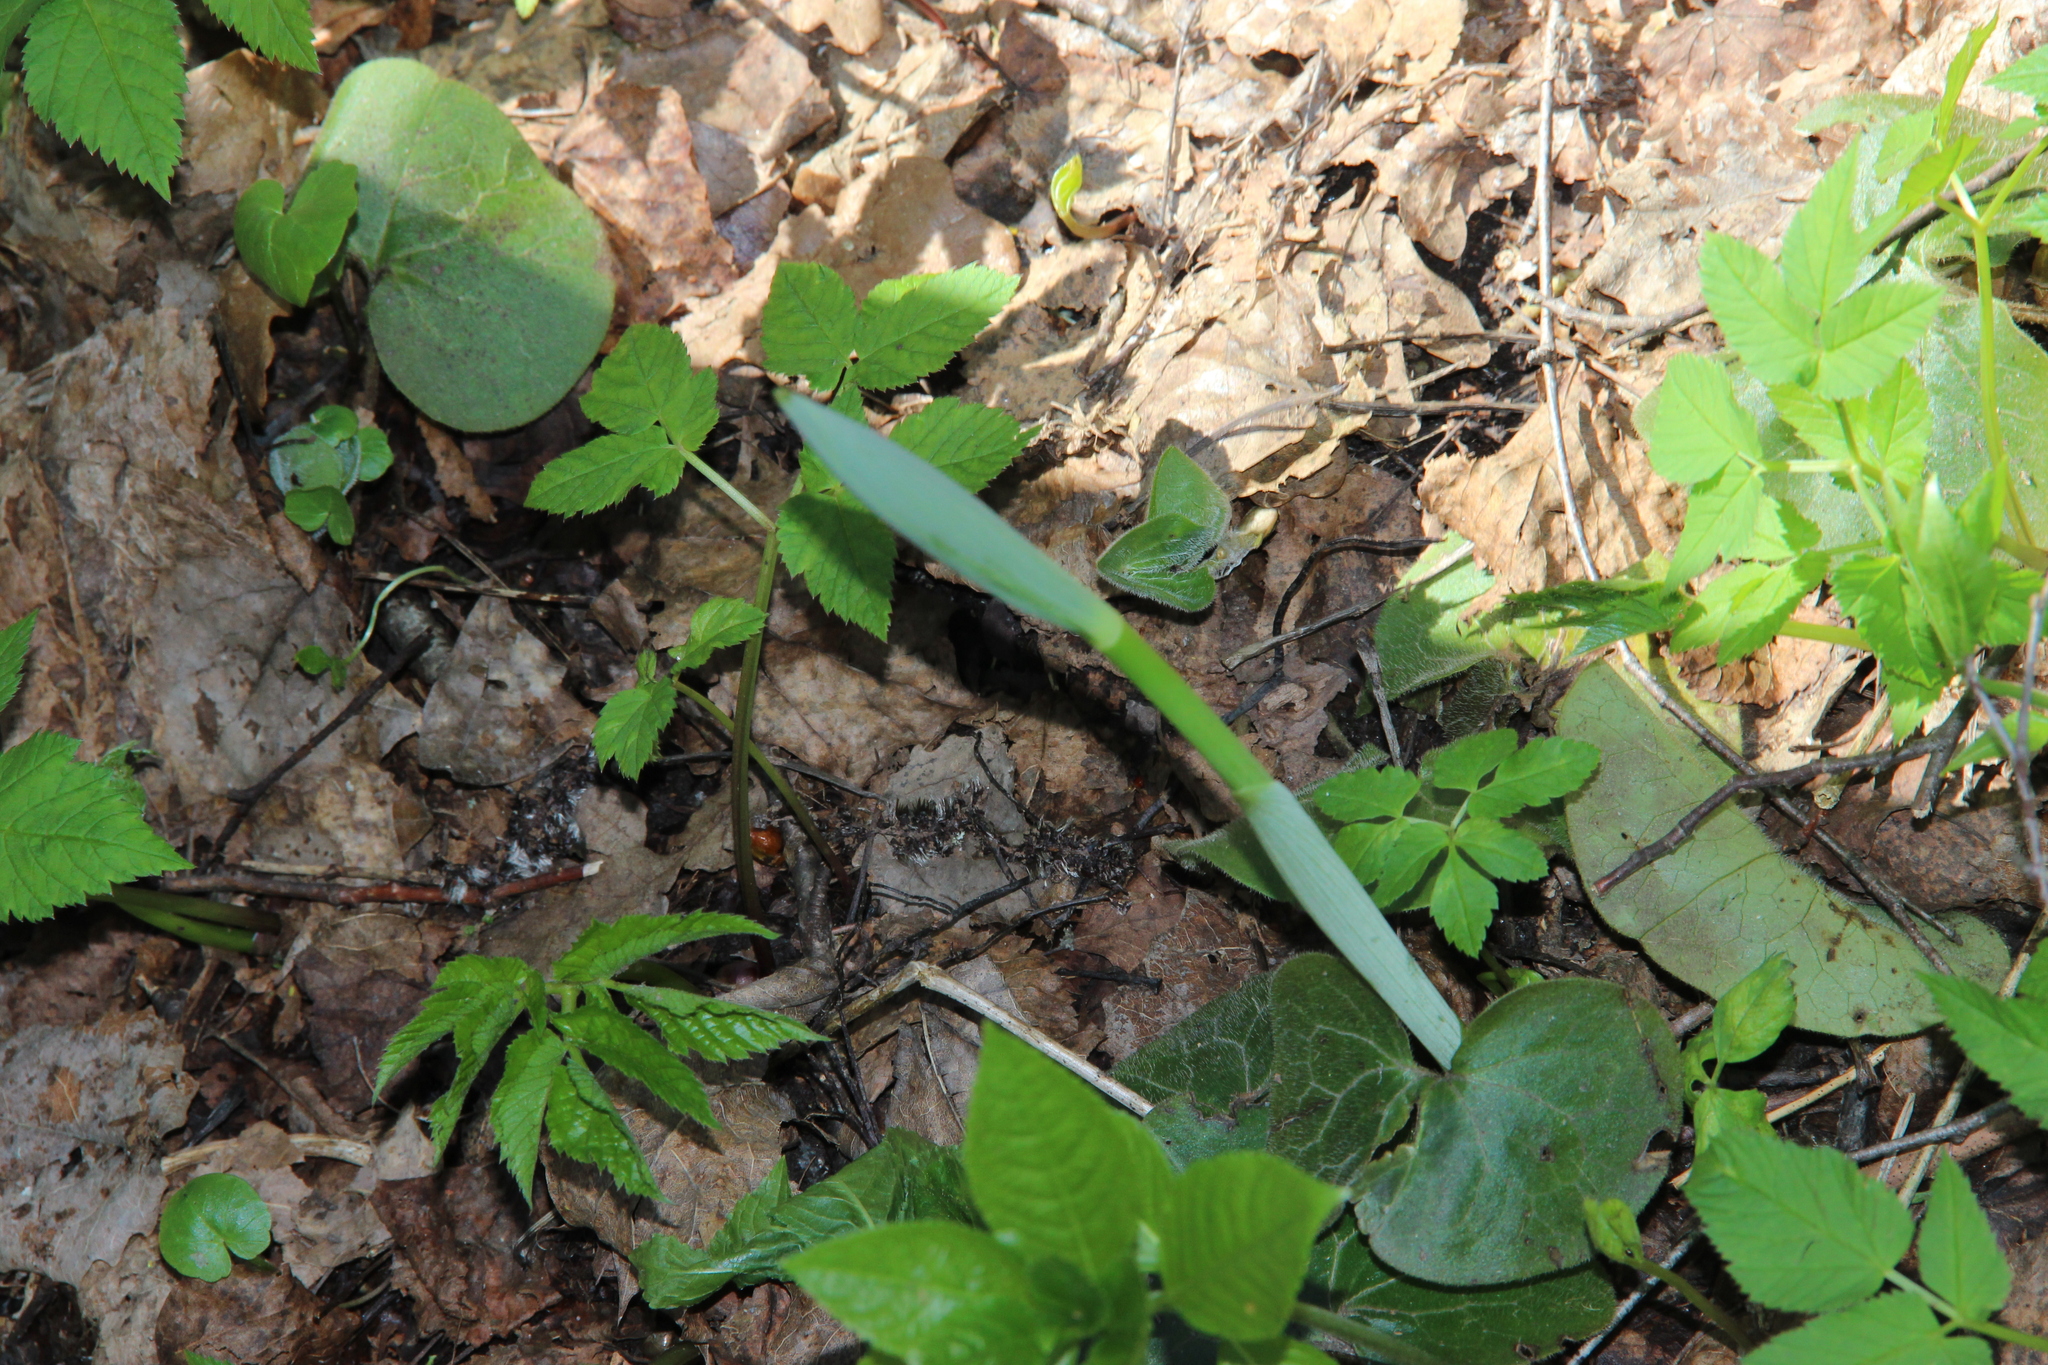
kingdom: Plantae
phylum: Tracheophyta
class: Liliopsida
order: Asparagales
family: Asparagaceae
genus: Polygonatum
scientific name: Polygonatum multiflorum
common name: Solomon's-seal
